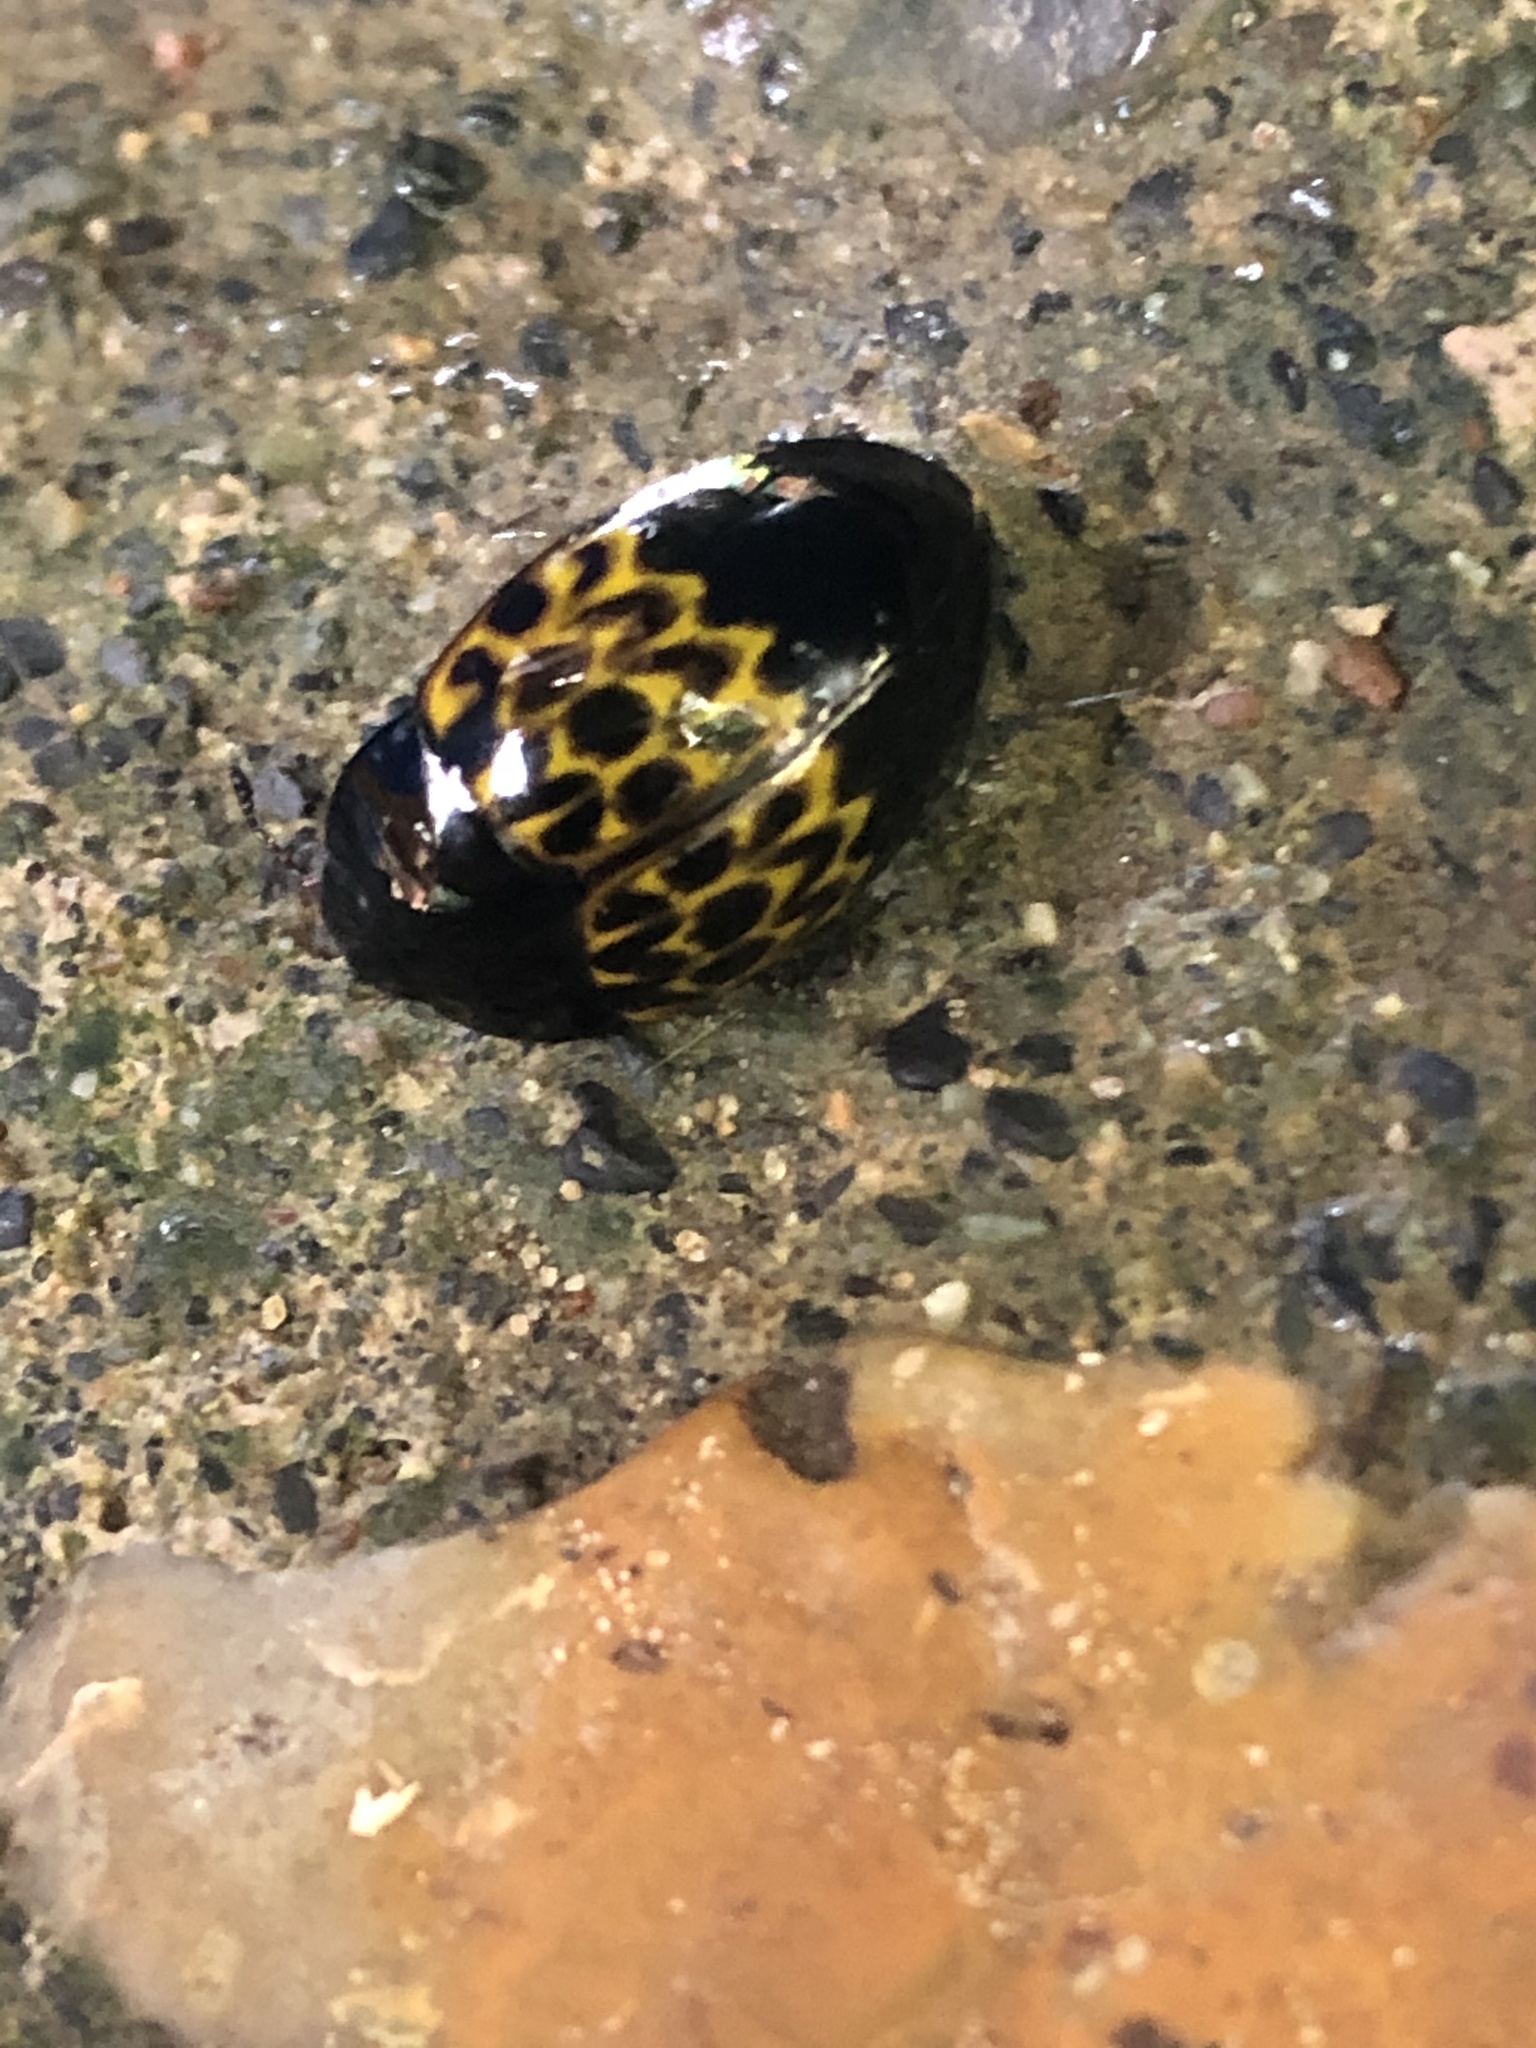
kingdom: Animalia
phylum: Arthropoda
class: Insecta
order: Coleoptera
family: Erotylidae
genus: Iphiclus
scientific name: Iphiclus
